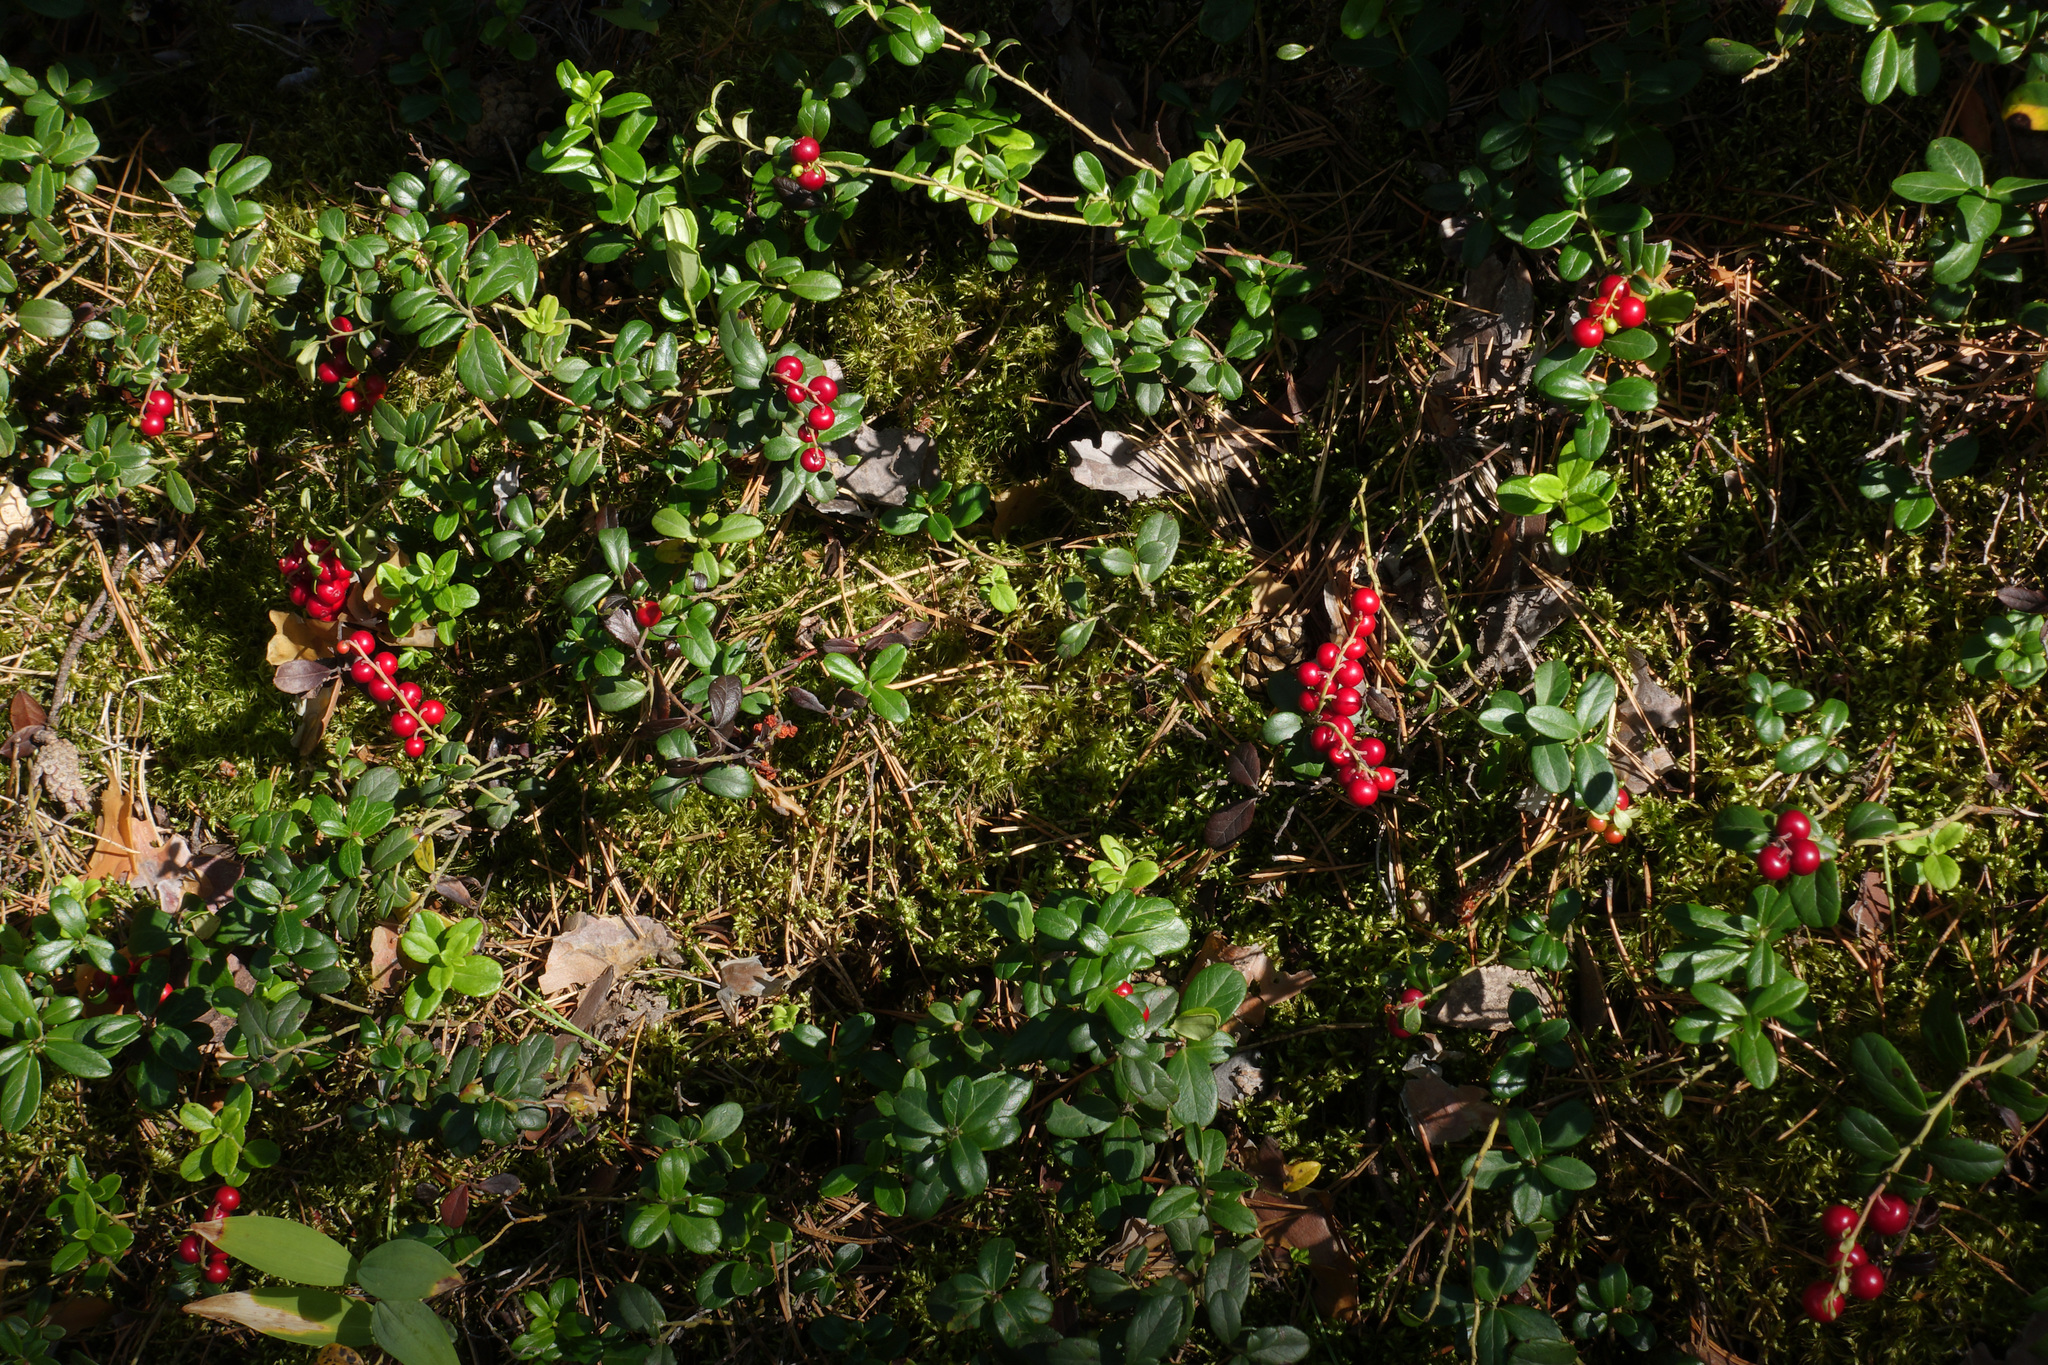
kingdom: Plantae
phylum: Tracheophyta
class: Magnoliopsida
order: Ericales
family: Ericaceae
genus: Vaccinium
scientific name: Vaccinium vitis-idaea
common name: Cowberry
